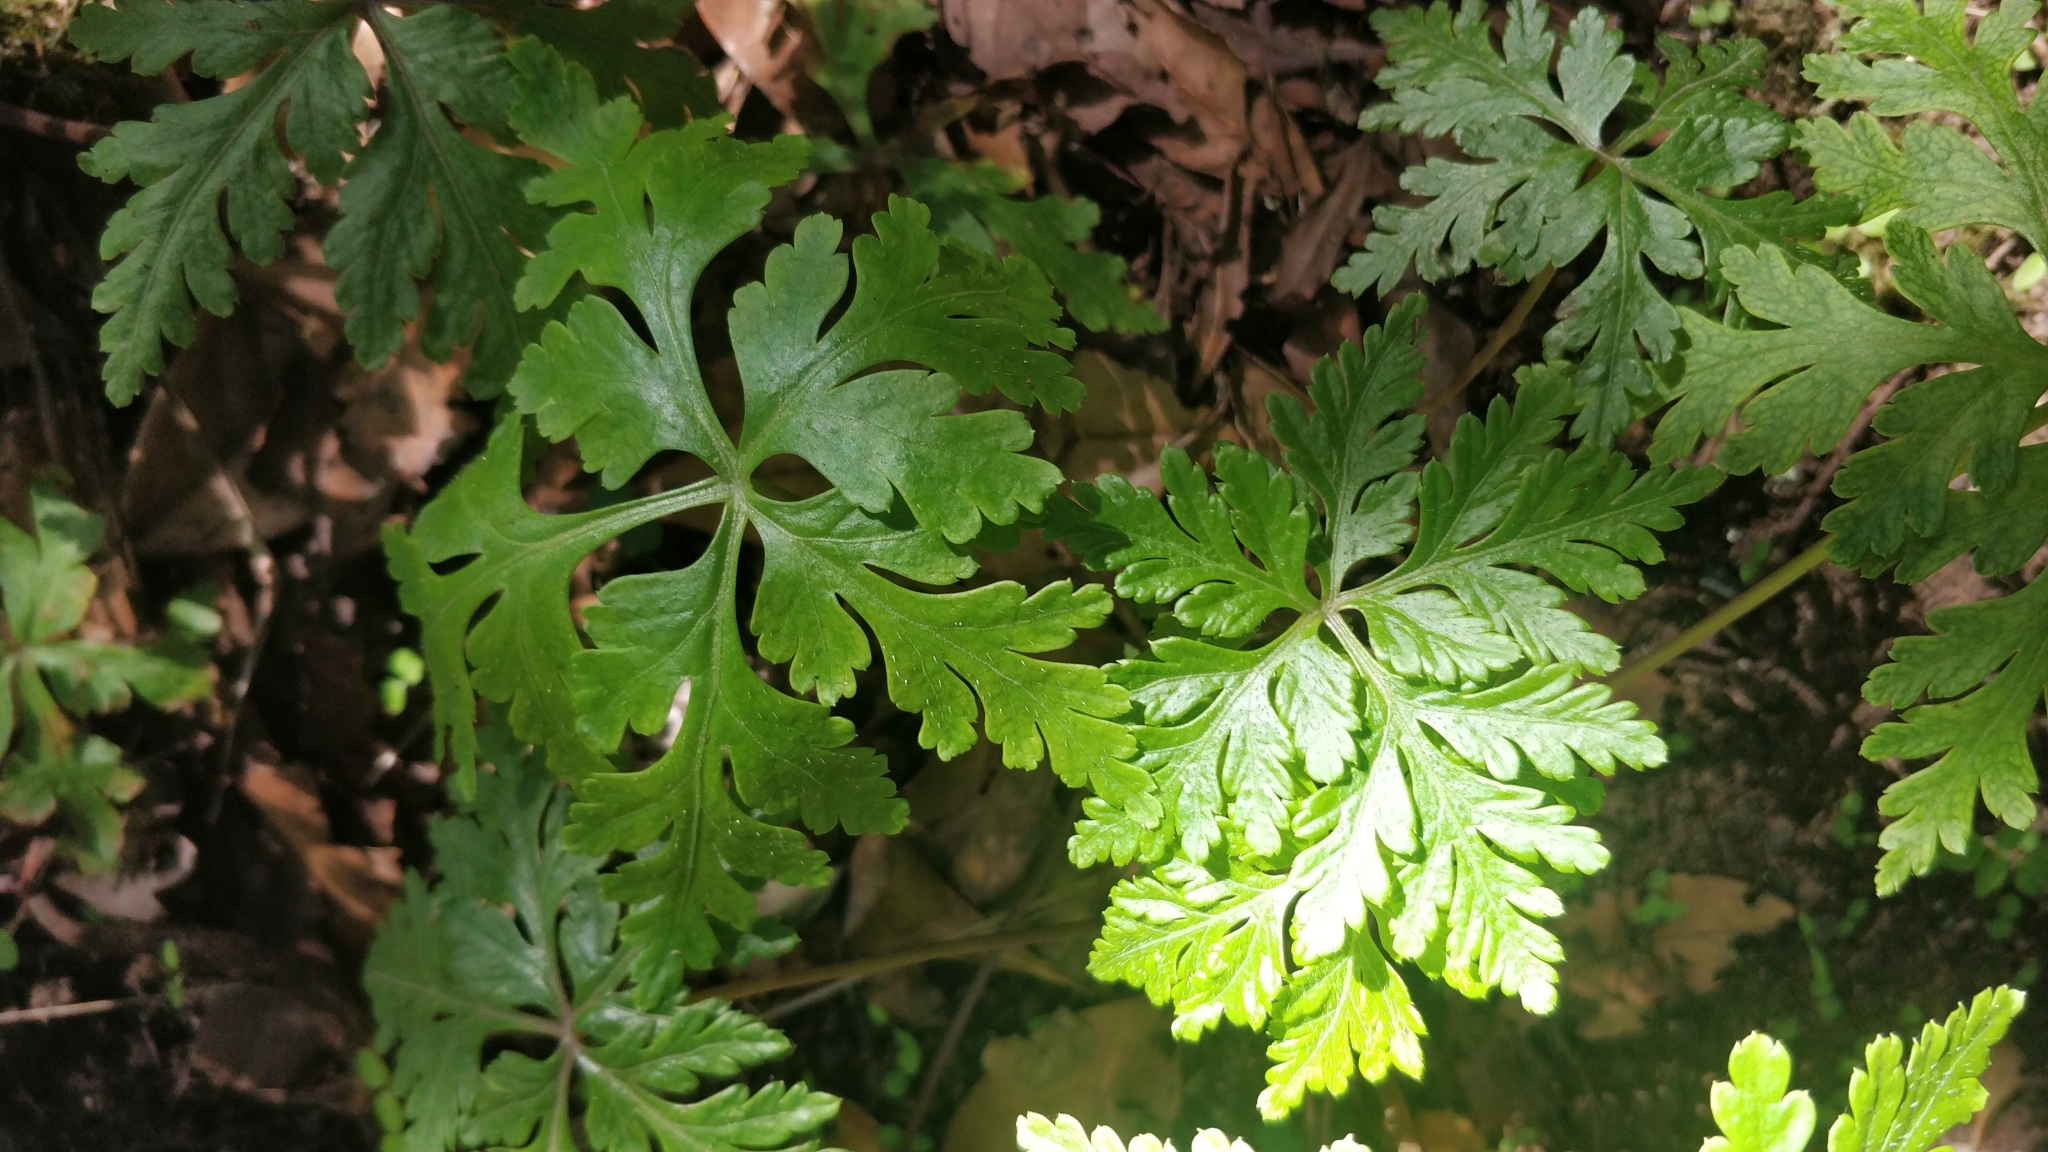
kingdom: Plantae
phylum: Tracheophyta
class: Magnoliopsida
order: Geraniales
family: Geraniaceae
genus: Geranium
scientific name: Geranium reuteri
